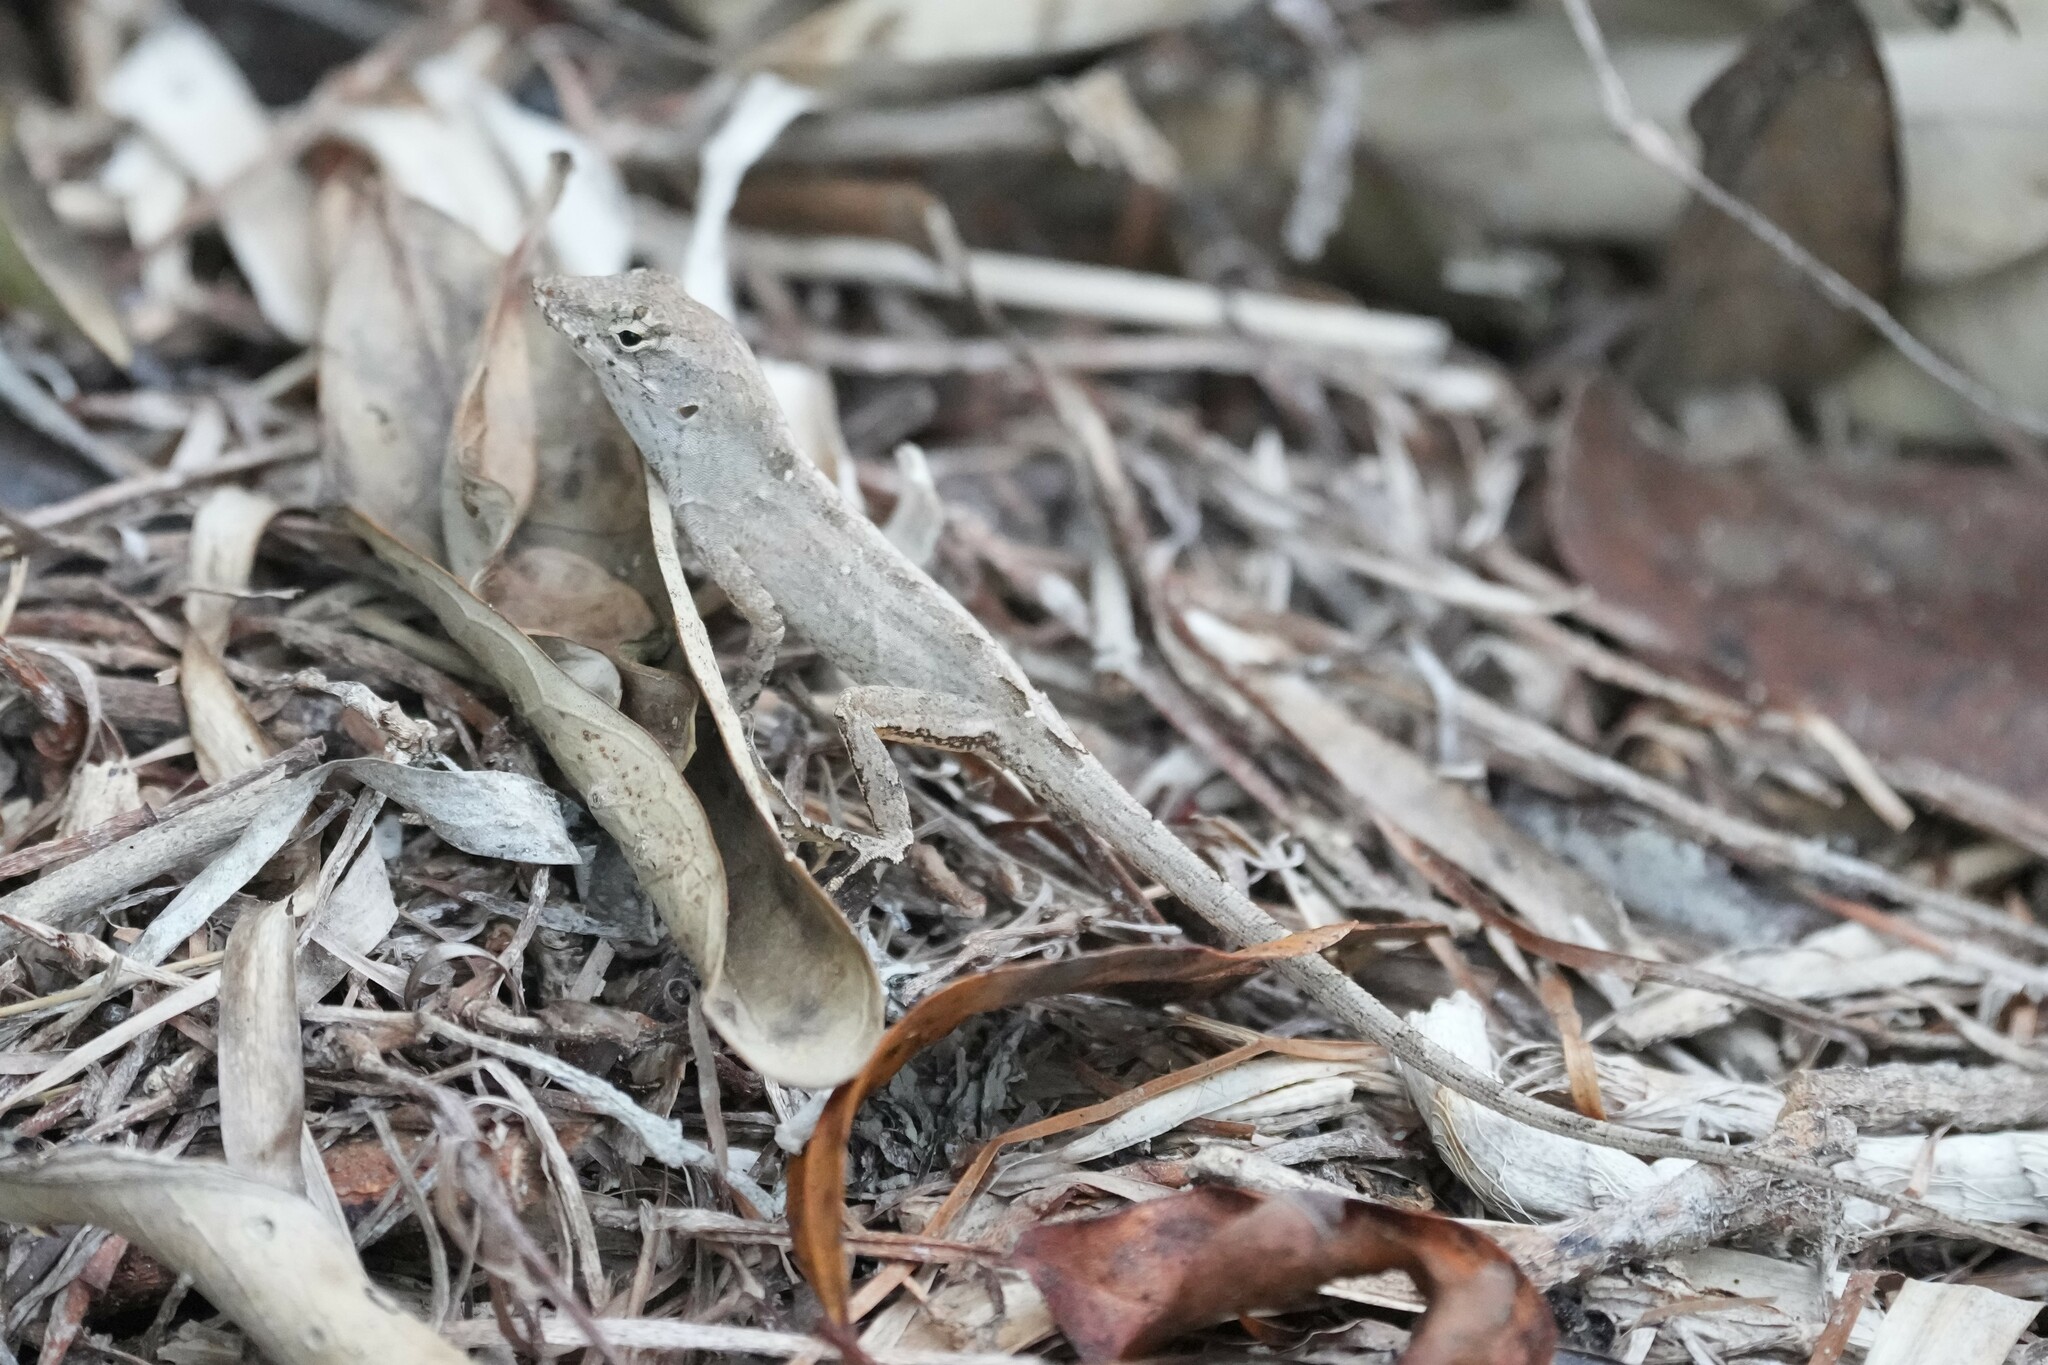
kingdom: Animalia
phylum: Chordata
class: Squamata
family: Dactyloidae
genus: Anolis
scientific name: Anolis sagrei
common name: Brown anole
